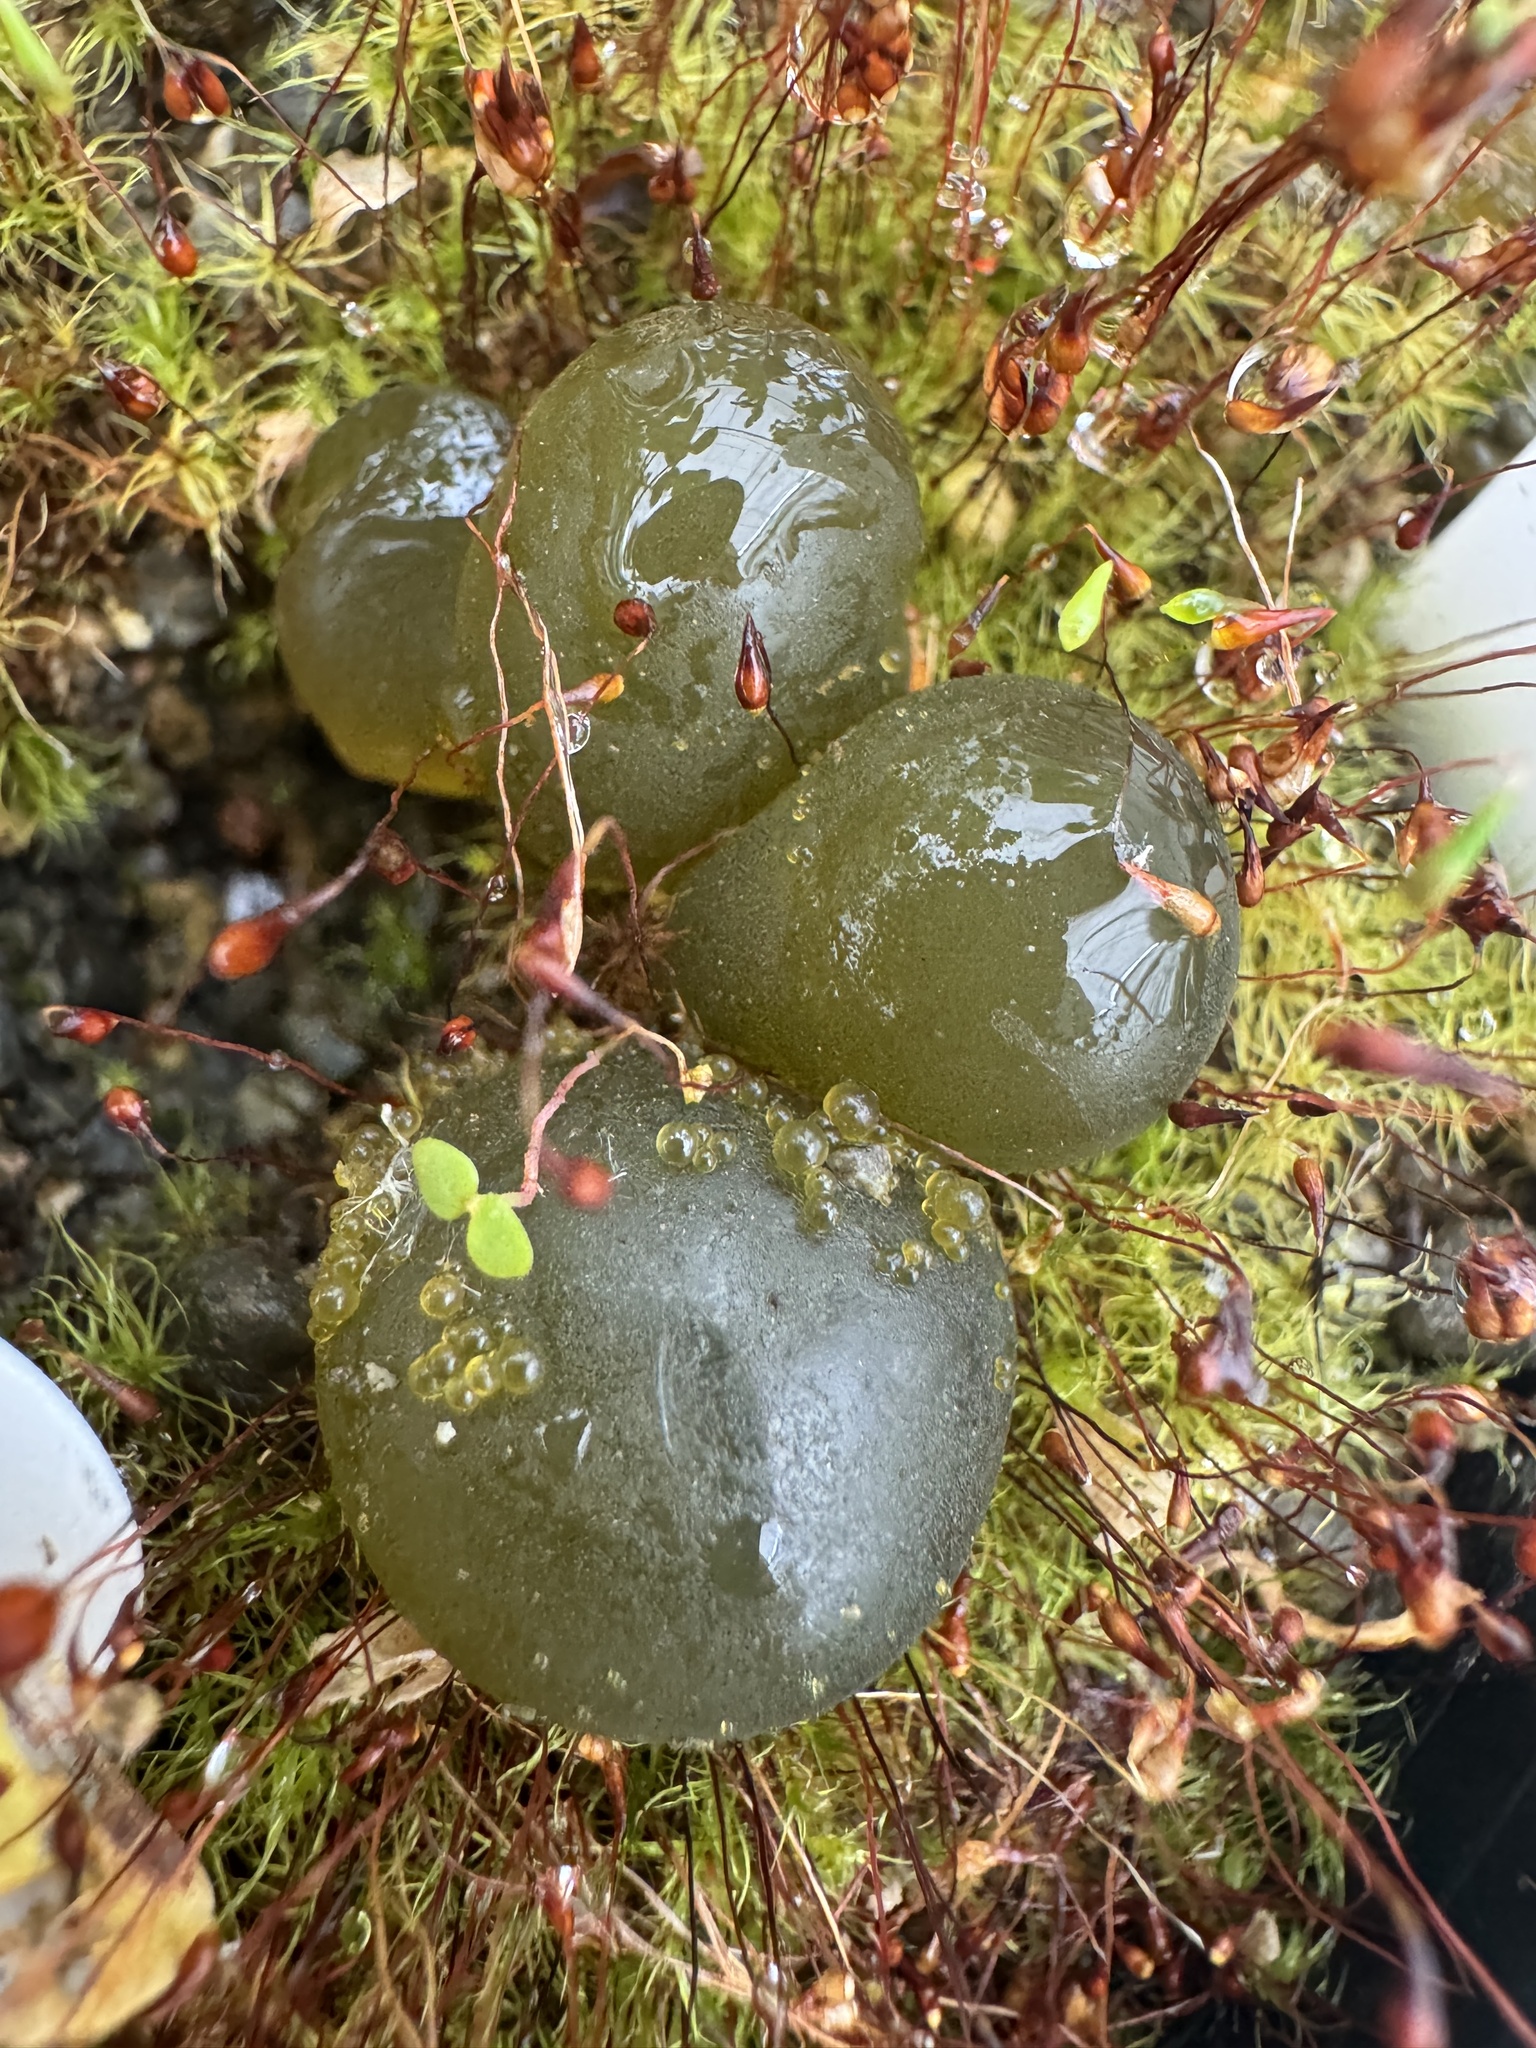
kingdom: Bacteria
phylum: Cyanobacteria
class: Cyanobacteriia
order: Cyanobacteriales
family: Nostocaceae
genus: Nostoc
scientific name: Nostoc commune
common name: Star jelly
